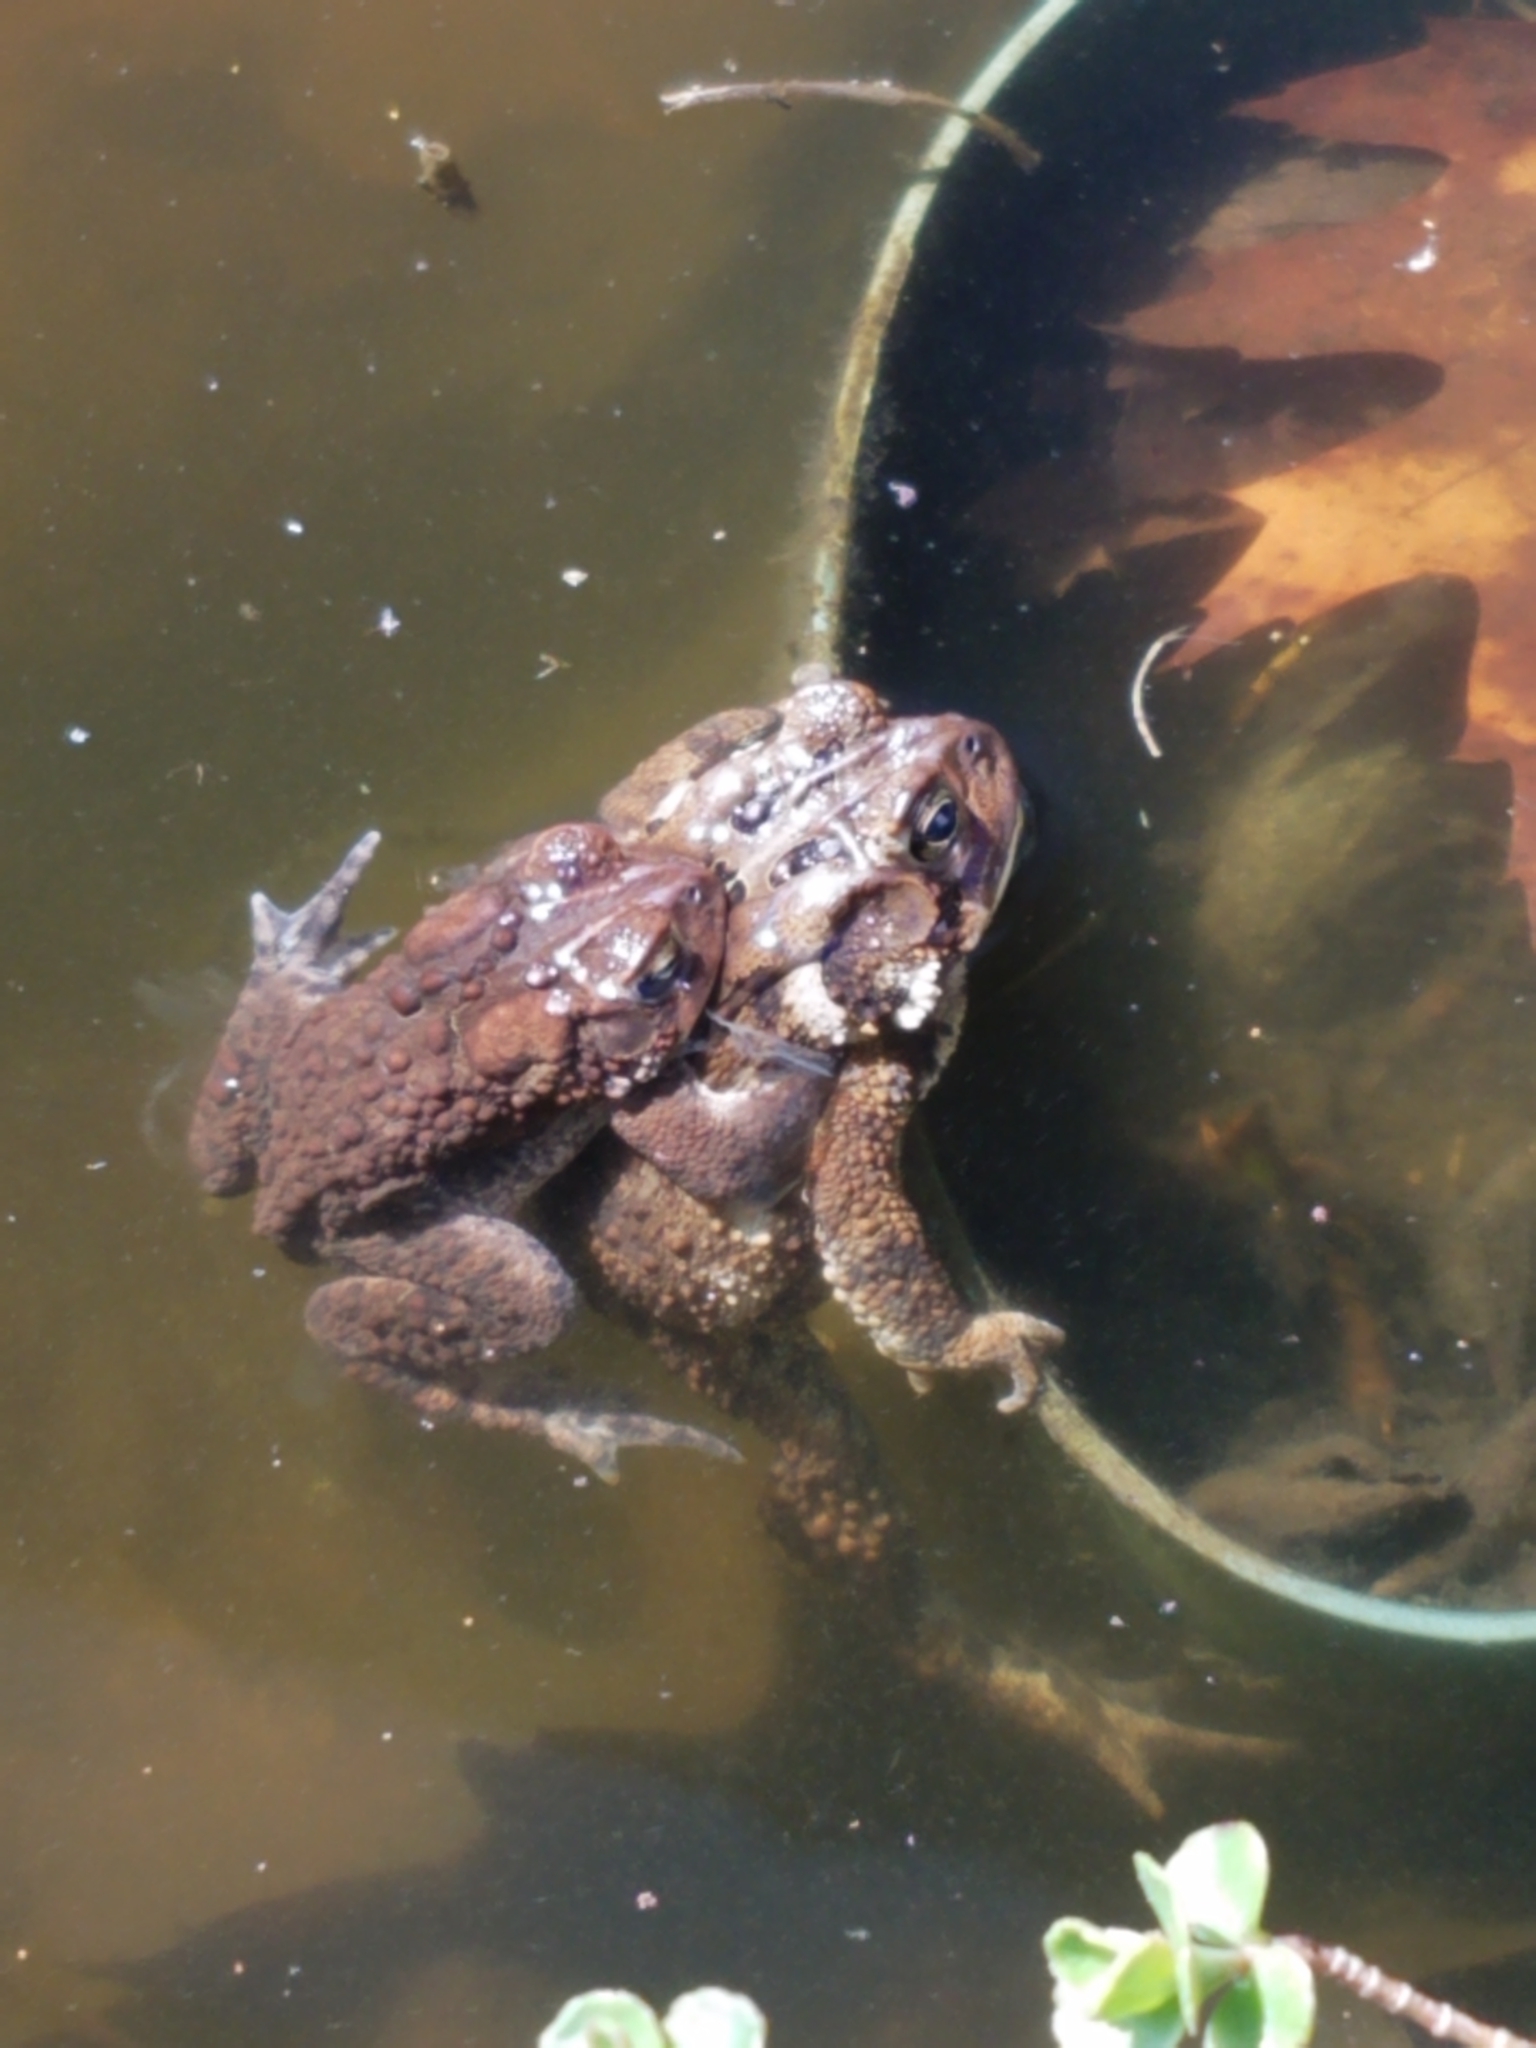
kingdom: Animalia
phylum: Chordata
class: Amphibia
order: Anura
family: Bufonidae
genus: Anaxyrus
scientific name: Anaxyrus americanus
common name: American toad
